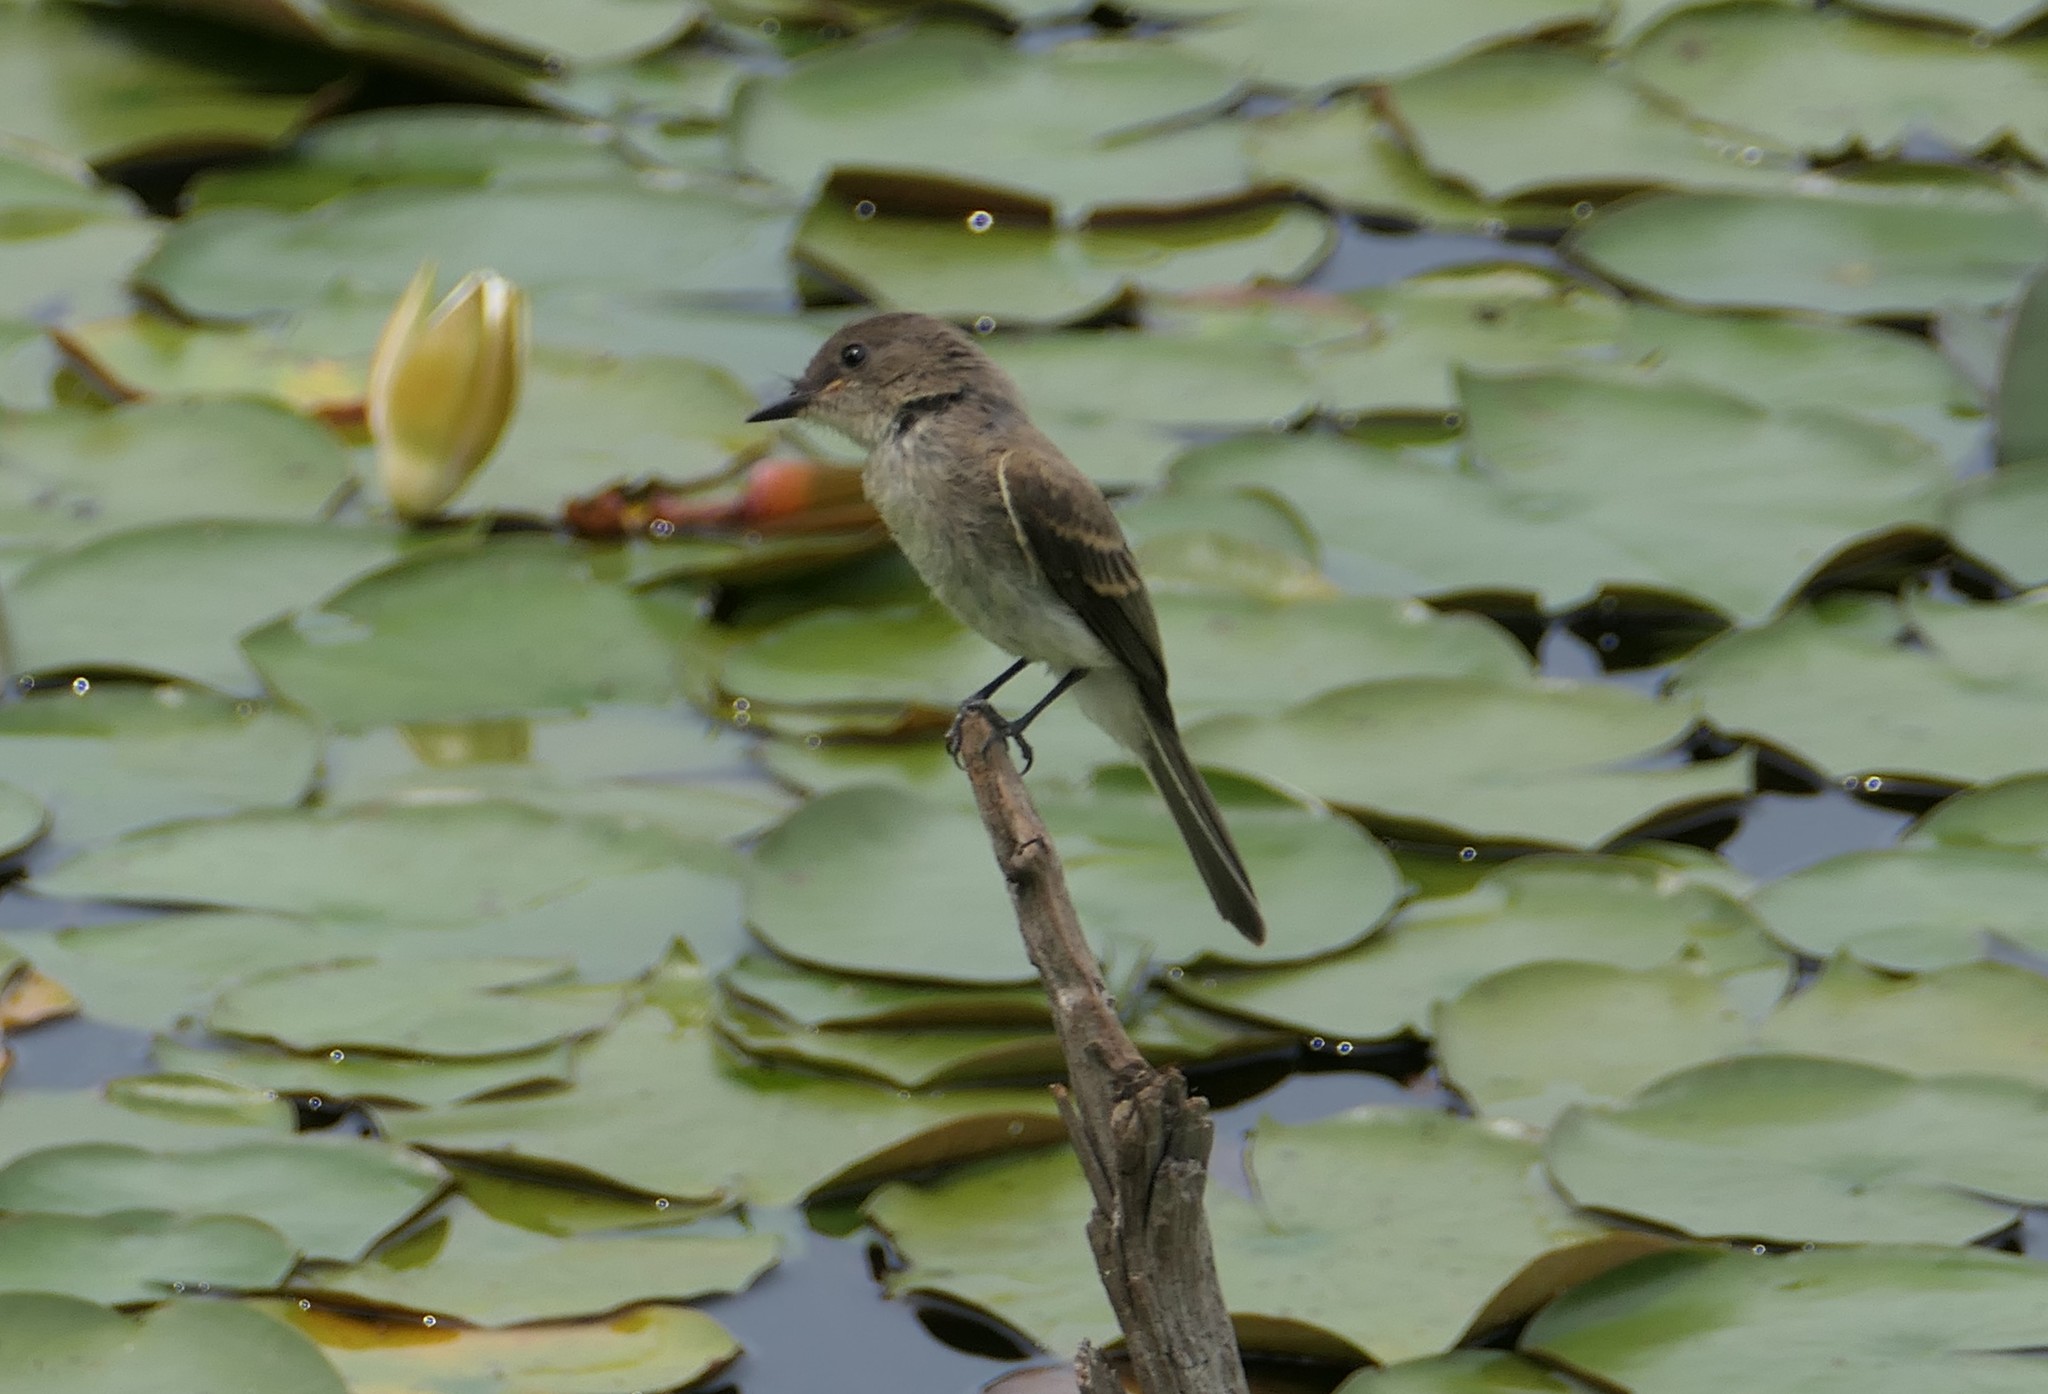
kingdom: Animalia
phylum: Chordata
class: Aves
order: Passeriformes
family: Tyrannidae
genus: Sayornis
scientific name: Sayornis phoebe
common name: Eastern phoebe
